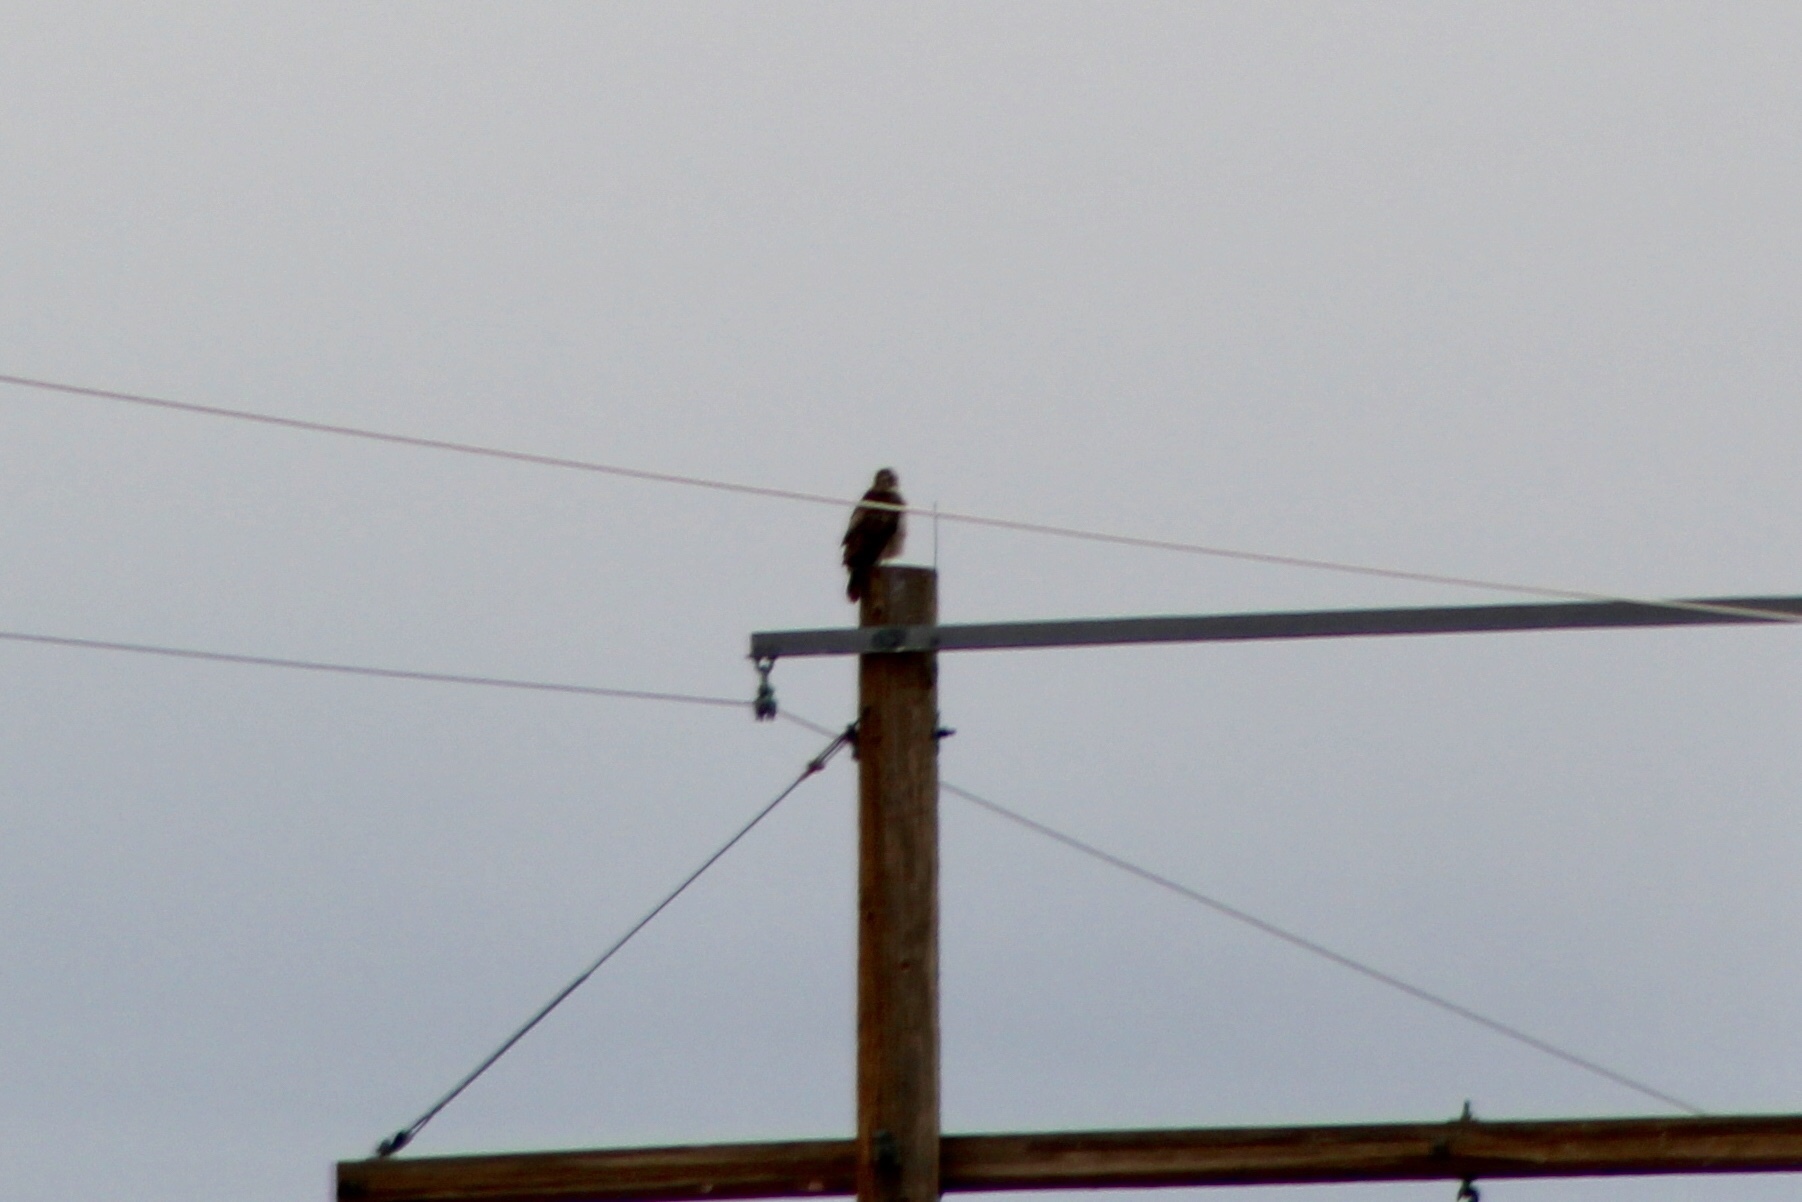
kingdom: Animalia
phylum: Chordata
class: Aves
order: Accipitriformes
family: Accipitridae
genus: Buteo
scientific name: Buteo jamaicensis
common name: Red-tailed hawk
